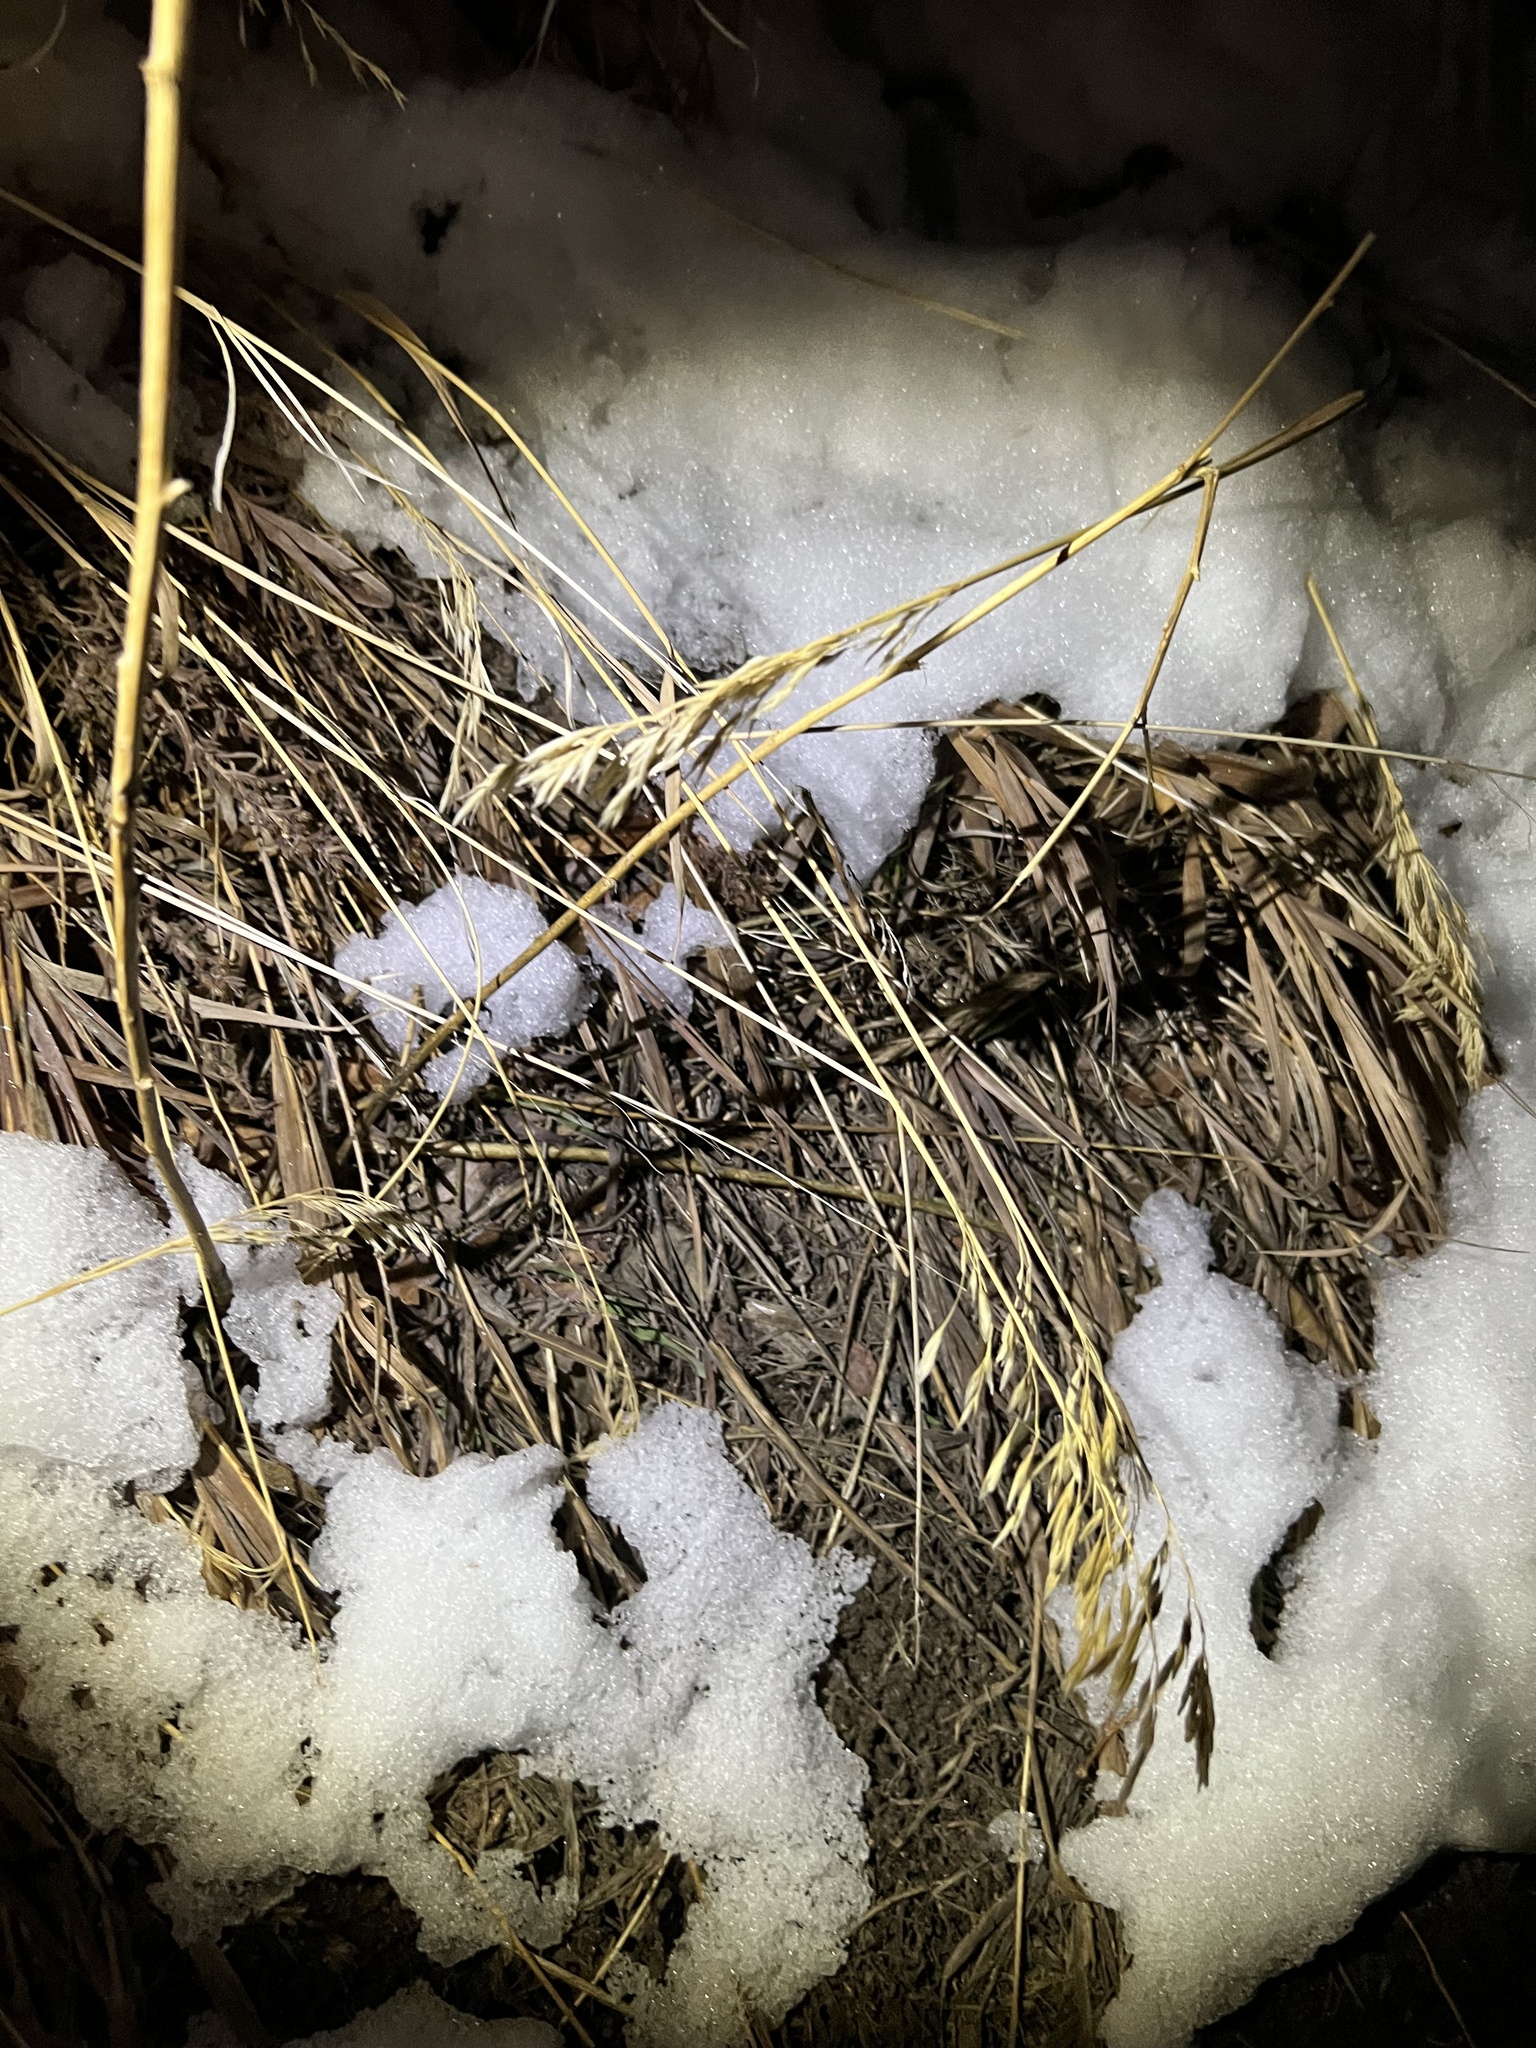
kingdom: Plantae
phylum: Tracheophyta
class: Liliopsida
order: Poales
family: Poaceae
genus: Bromus
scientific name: Bromus inermis
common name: Smooth brome
